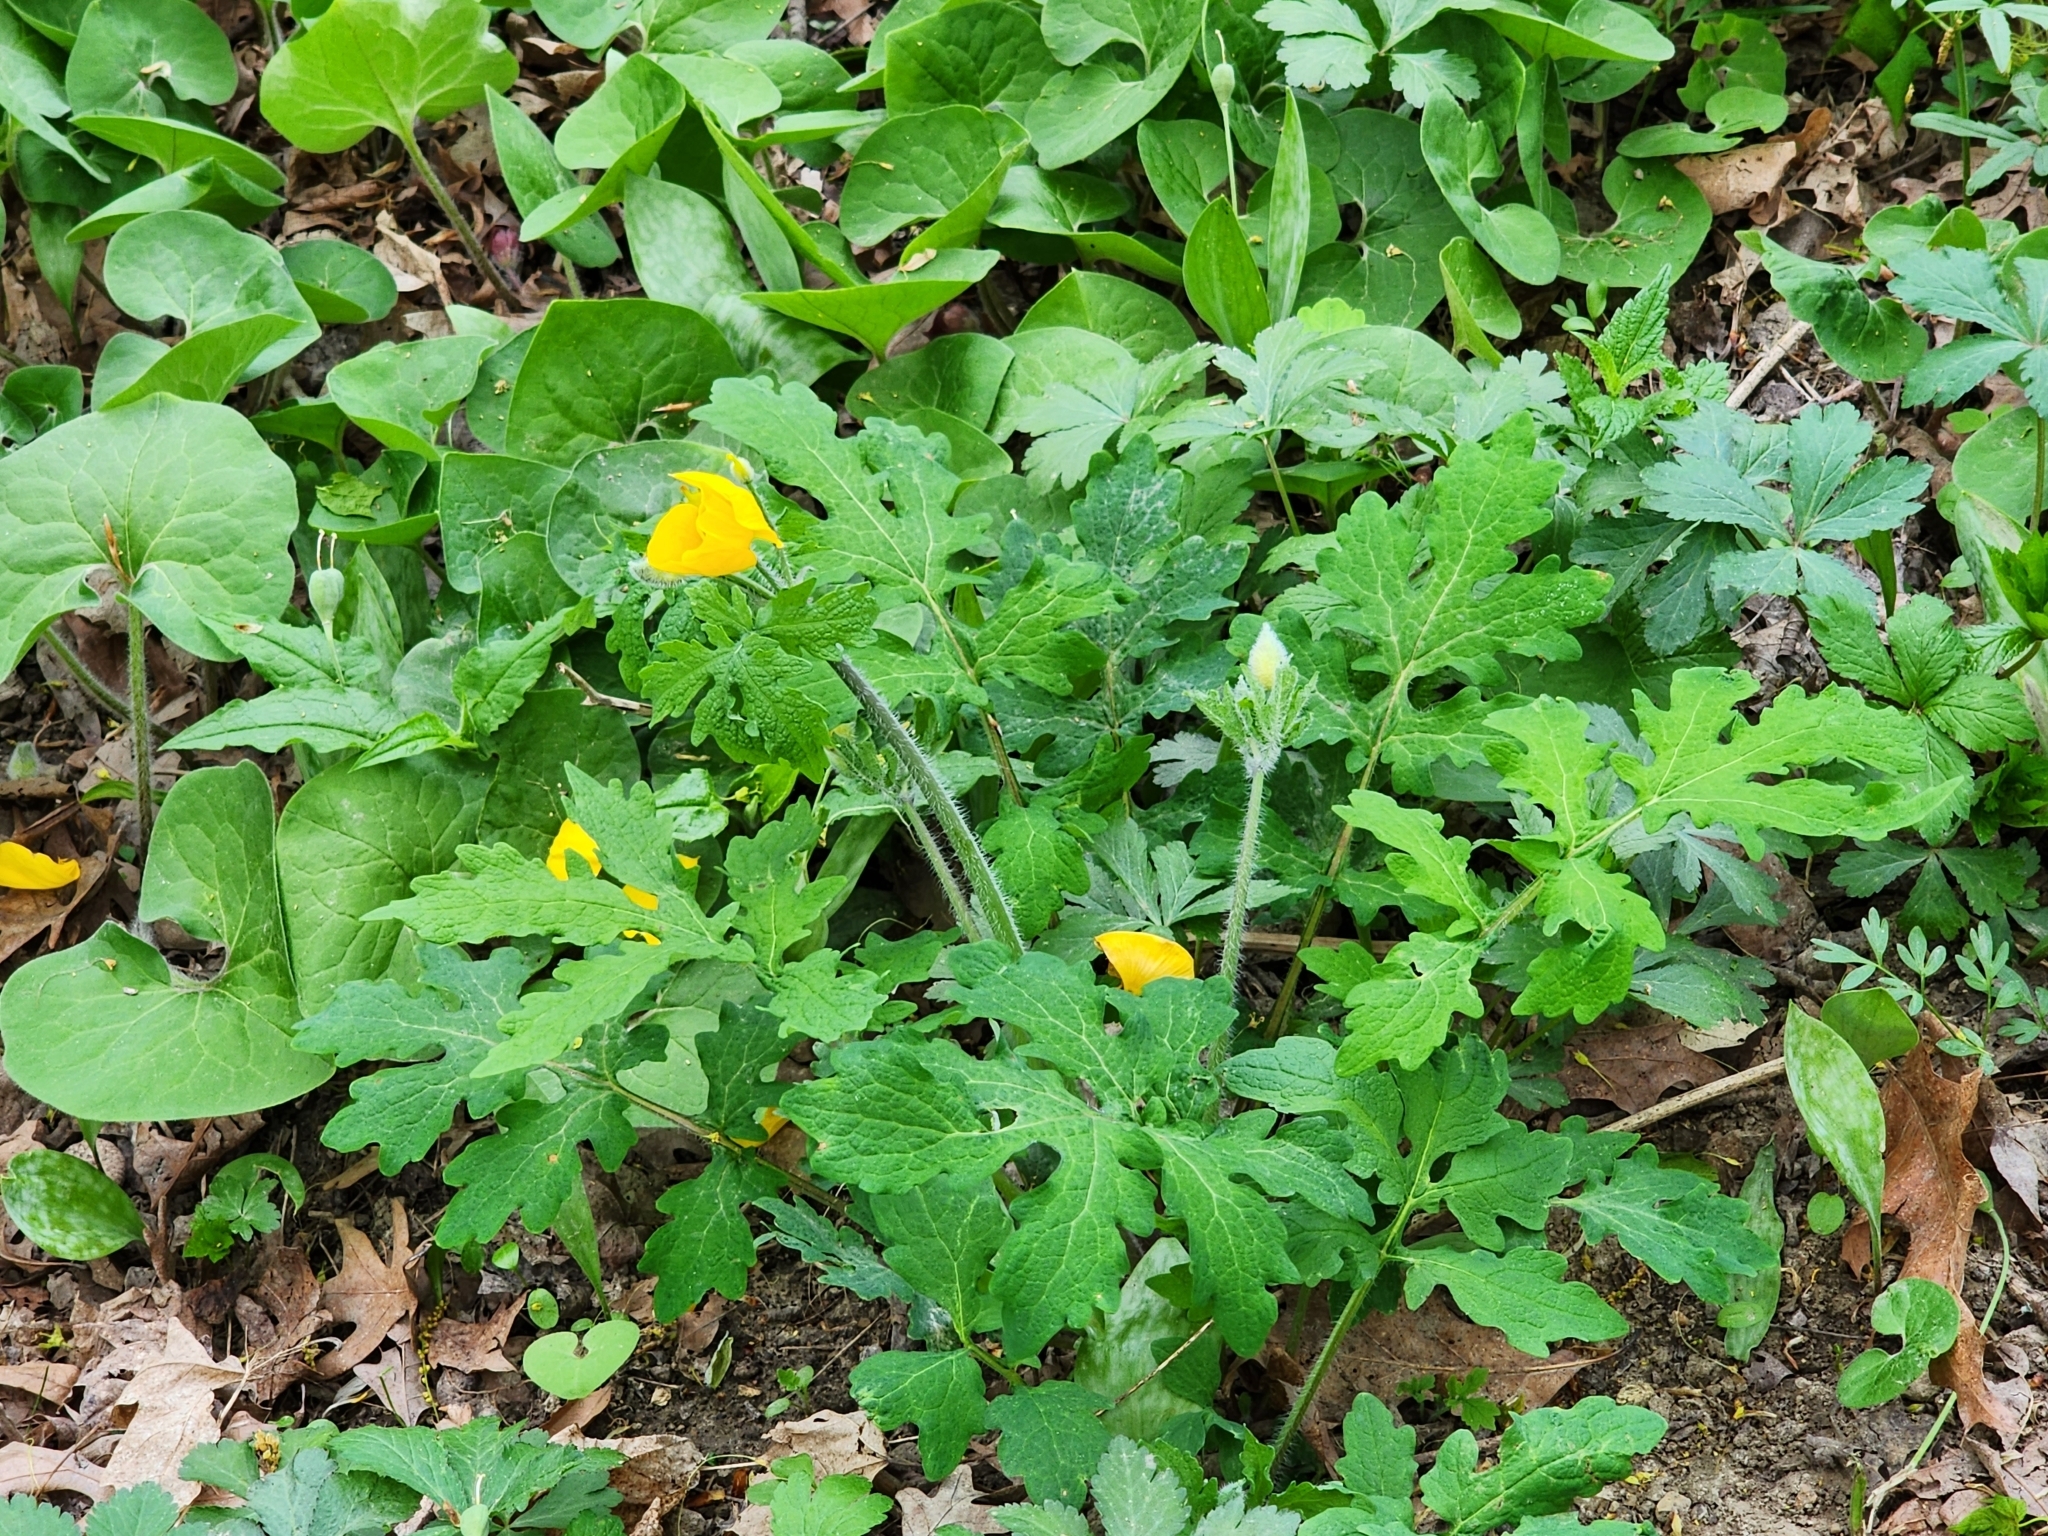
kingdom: Plantae
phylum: Tracheophyta
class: Magnoliopsida
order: Ranunculales
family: Papaveraceae
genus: Stylophorum
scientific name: Stylophorum diphyllum
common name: Celandine poppy
